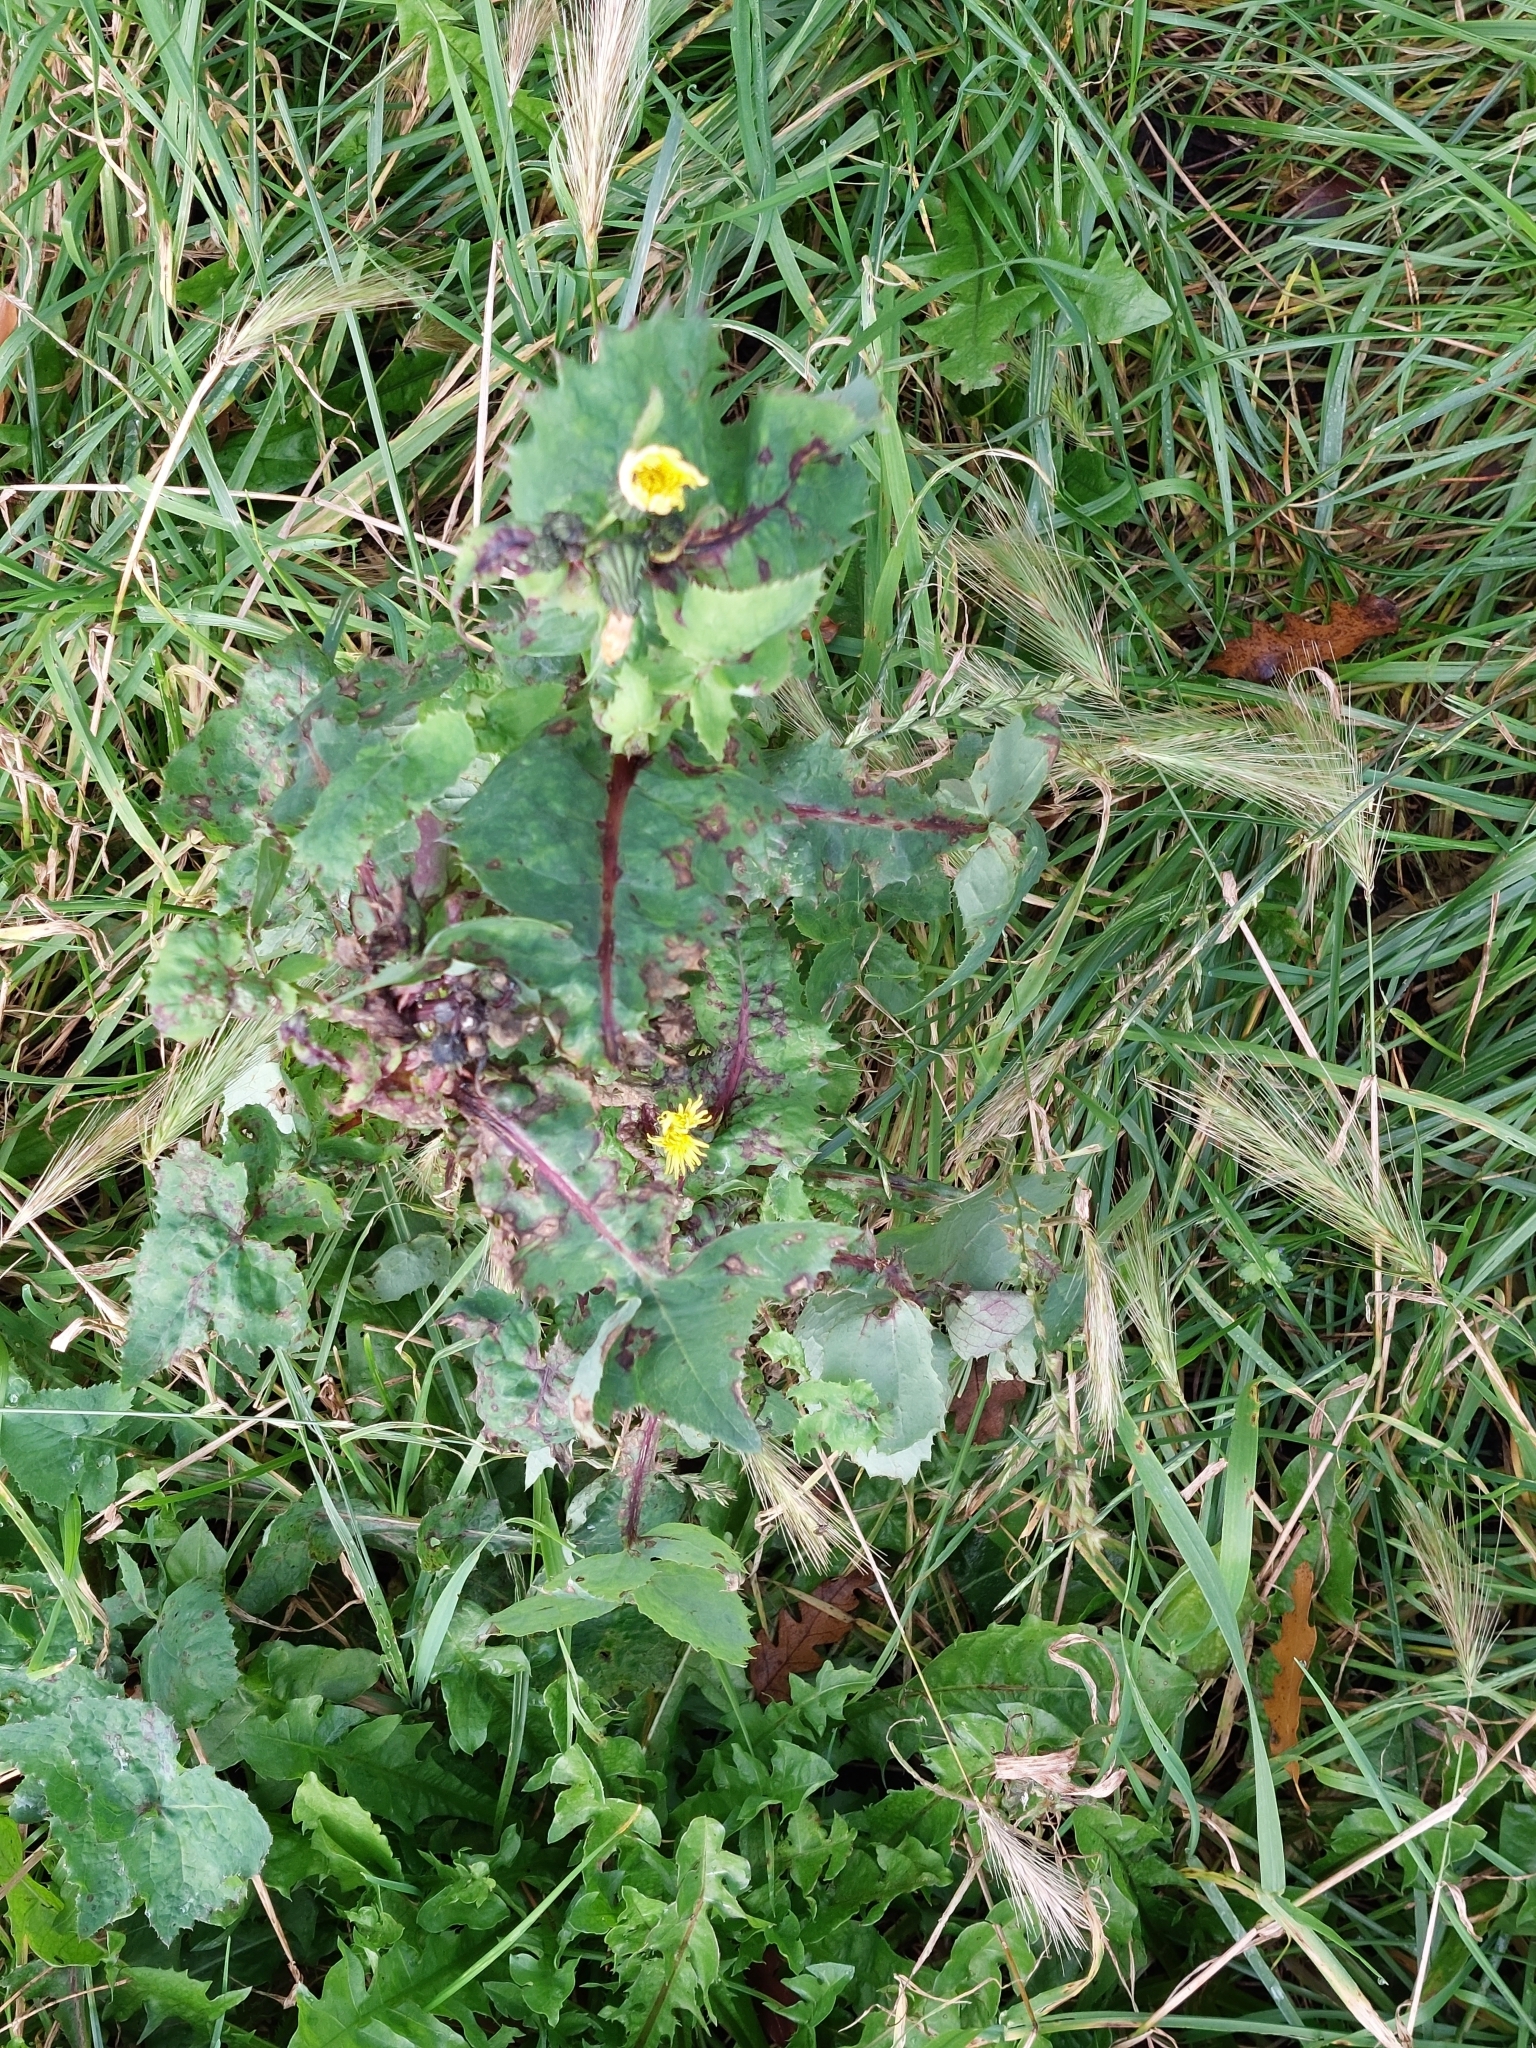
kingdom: Plantae
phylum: Tracheophyta
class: Magnoliopsida
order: Asterales
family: Asteraceae
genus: Sonchus
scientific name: Sonchus oleraceus
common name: Common sowthistle
